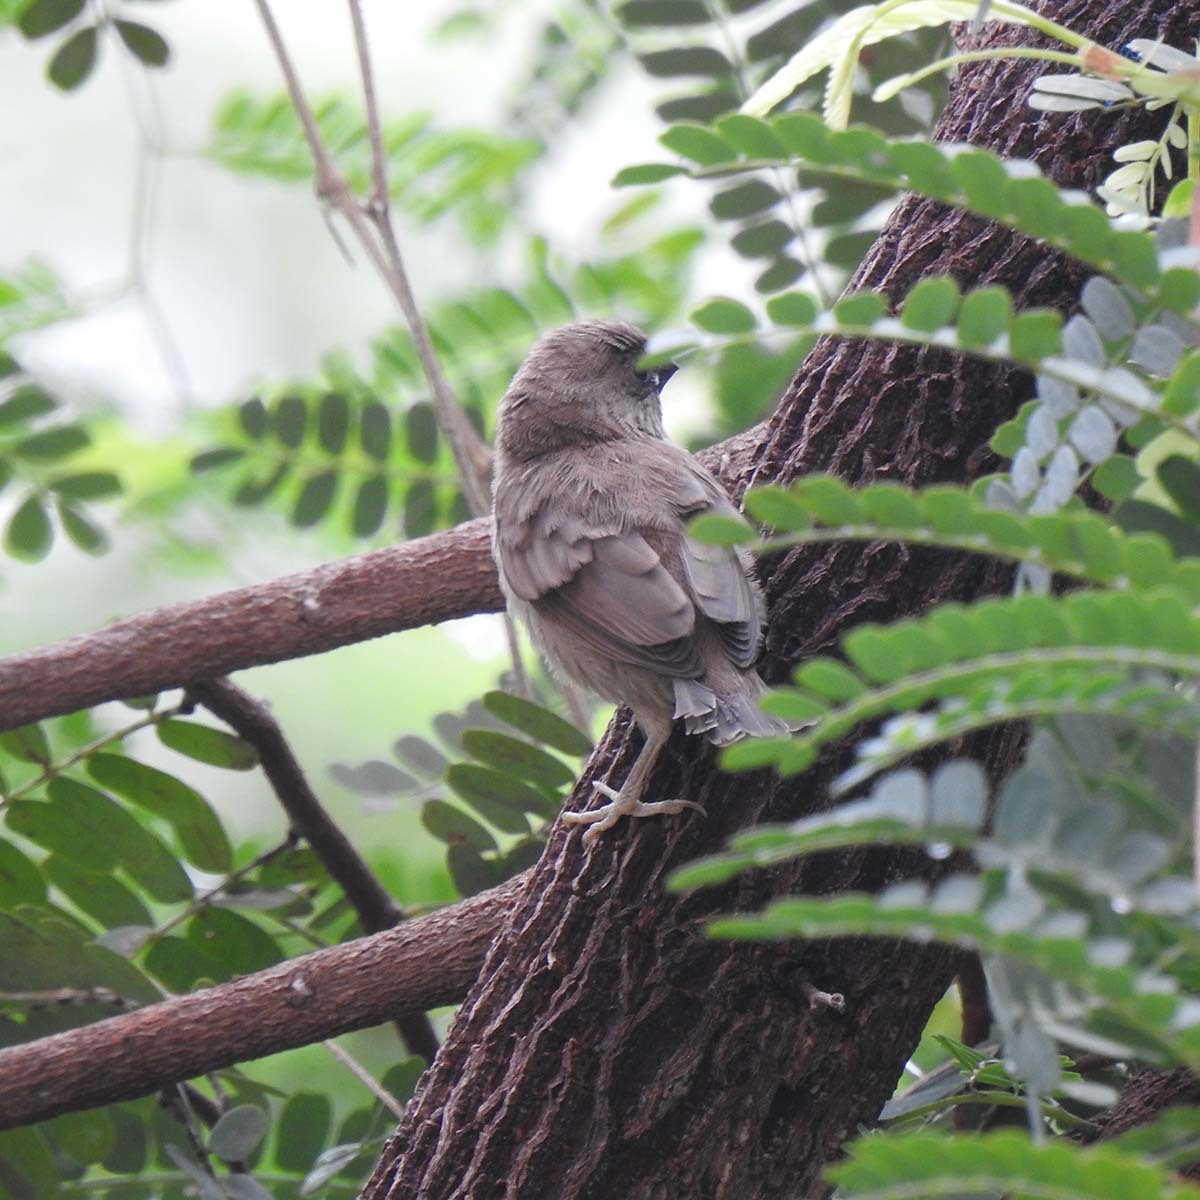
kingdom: Animalia
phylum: Chordata
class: Aves
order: Passeriformes
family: Estrildidae
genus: Lonchura
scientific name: Lonchura punctulata
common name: Scaly-breasted munia
